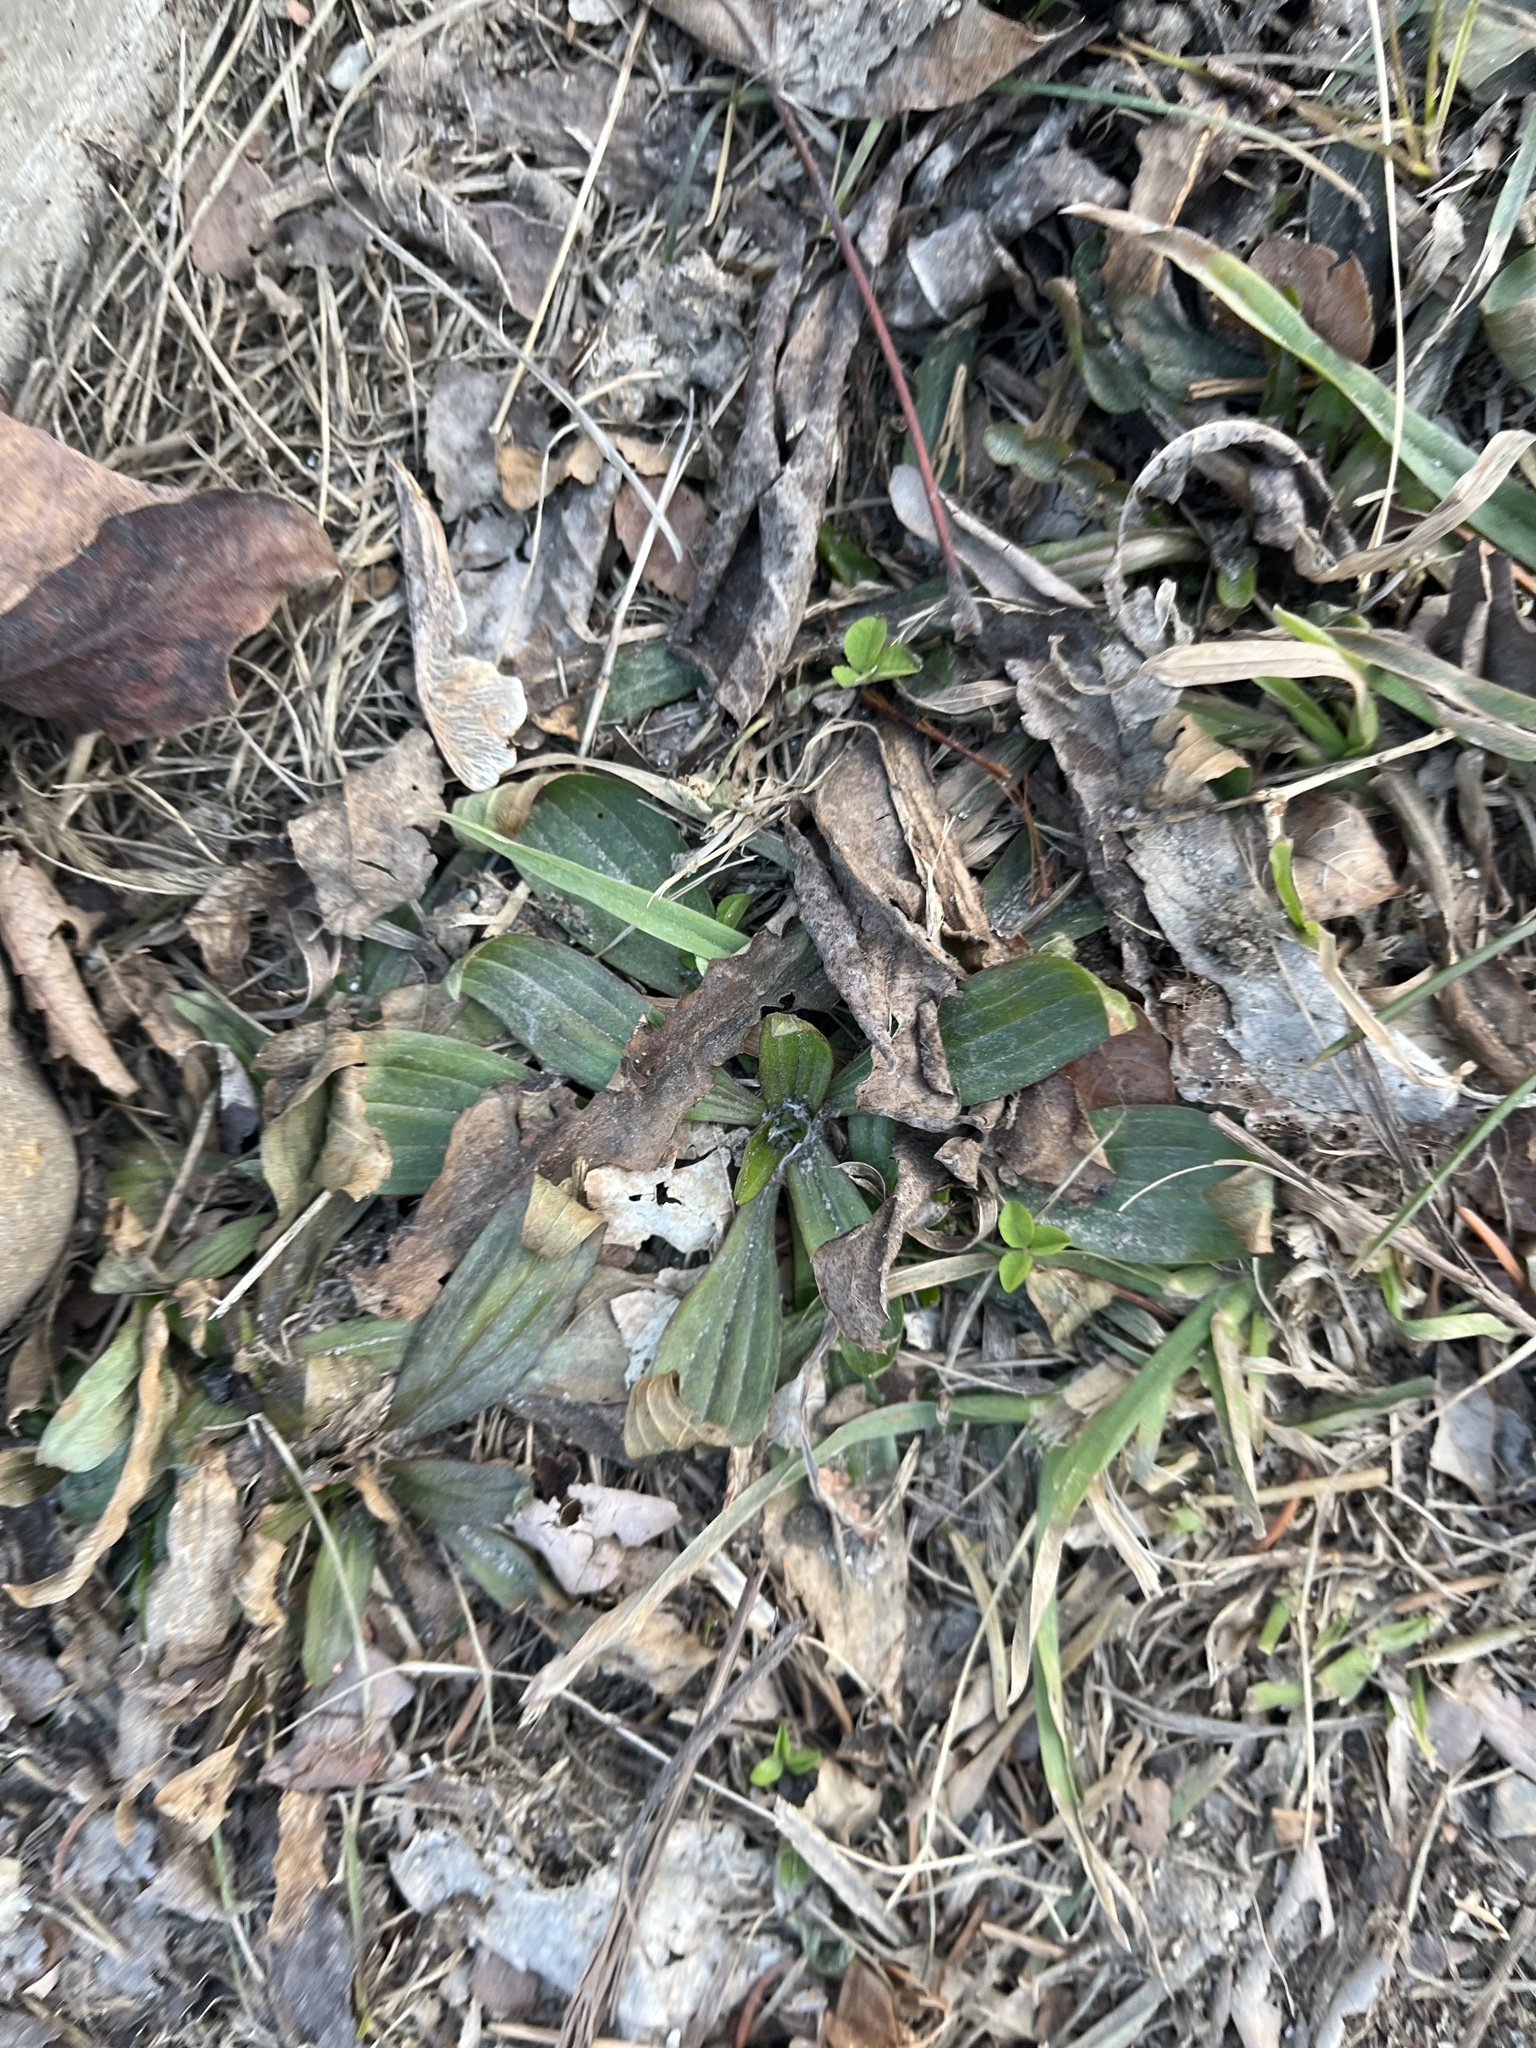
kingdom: Plantae
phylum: Tracheophyta
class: Magnoliopsida
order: Lamiales
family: Plantaginaceae
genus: Plantago
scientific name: Plantago lanceolata
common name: Ribwort plantain
